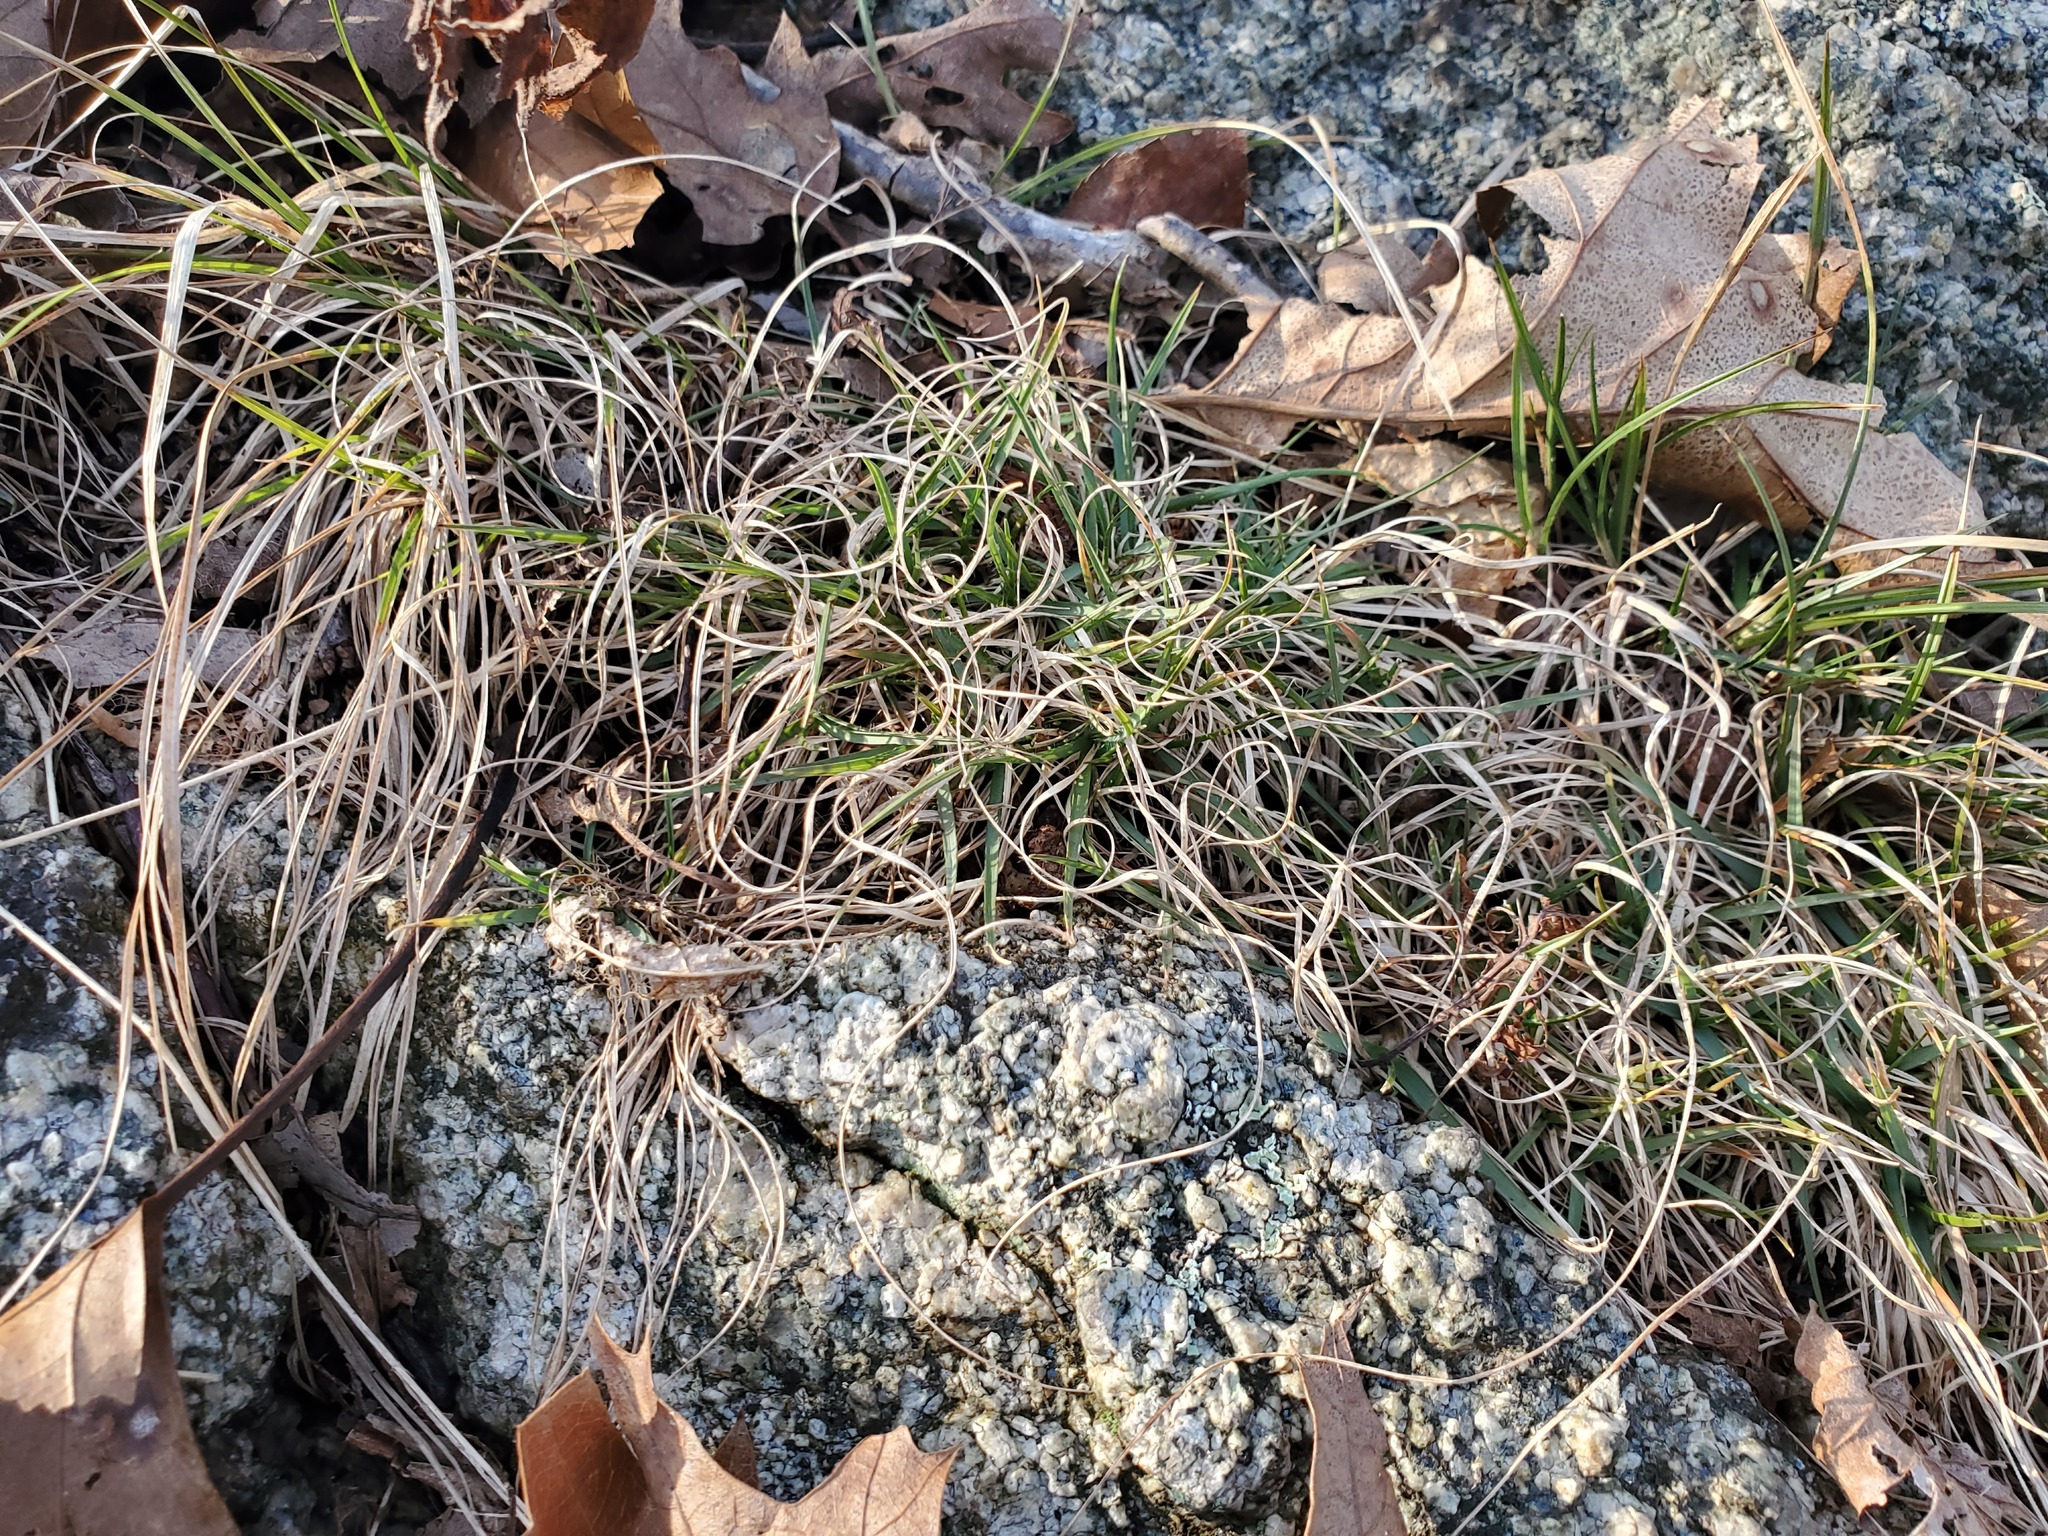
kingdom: Plantae
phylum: Tracheophyta
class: Liliopsida
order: Poales
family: Poaceae
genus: Danthonia
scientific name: Danthonia spicata
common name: Common wild oatgrass
